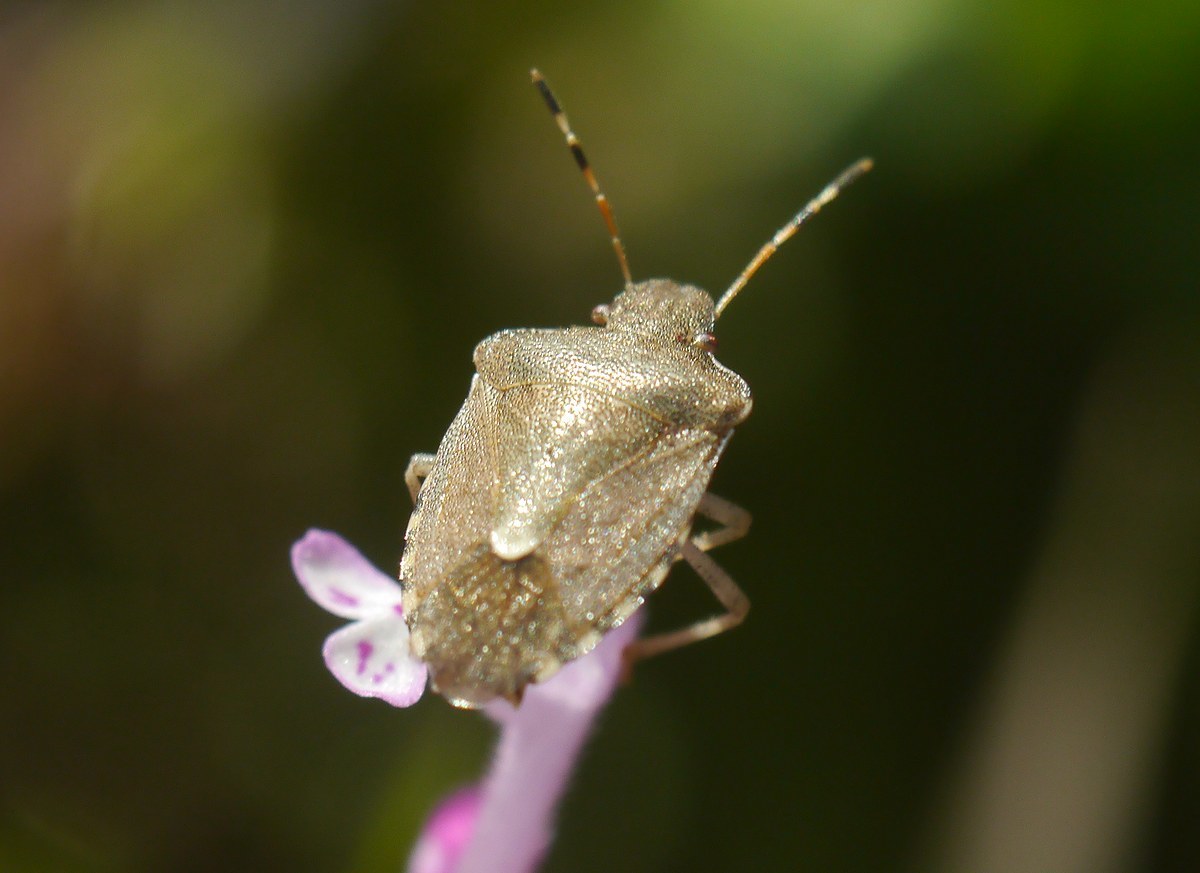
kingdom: Animalia
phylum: Arthropoda
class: Insecta
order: Hemiptera
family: Pentatomidae
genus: Holcostethus
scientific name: Holcostethus strictus
